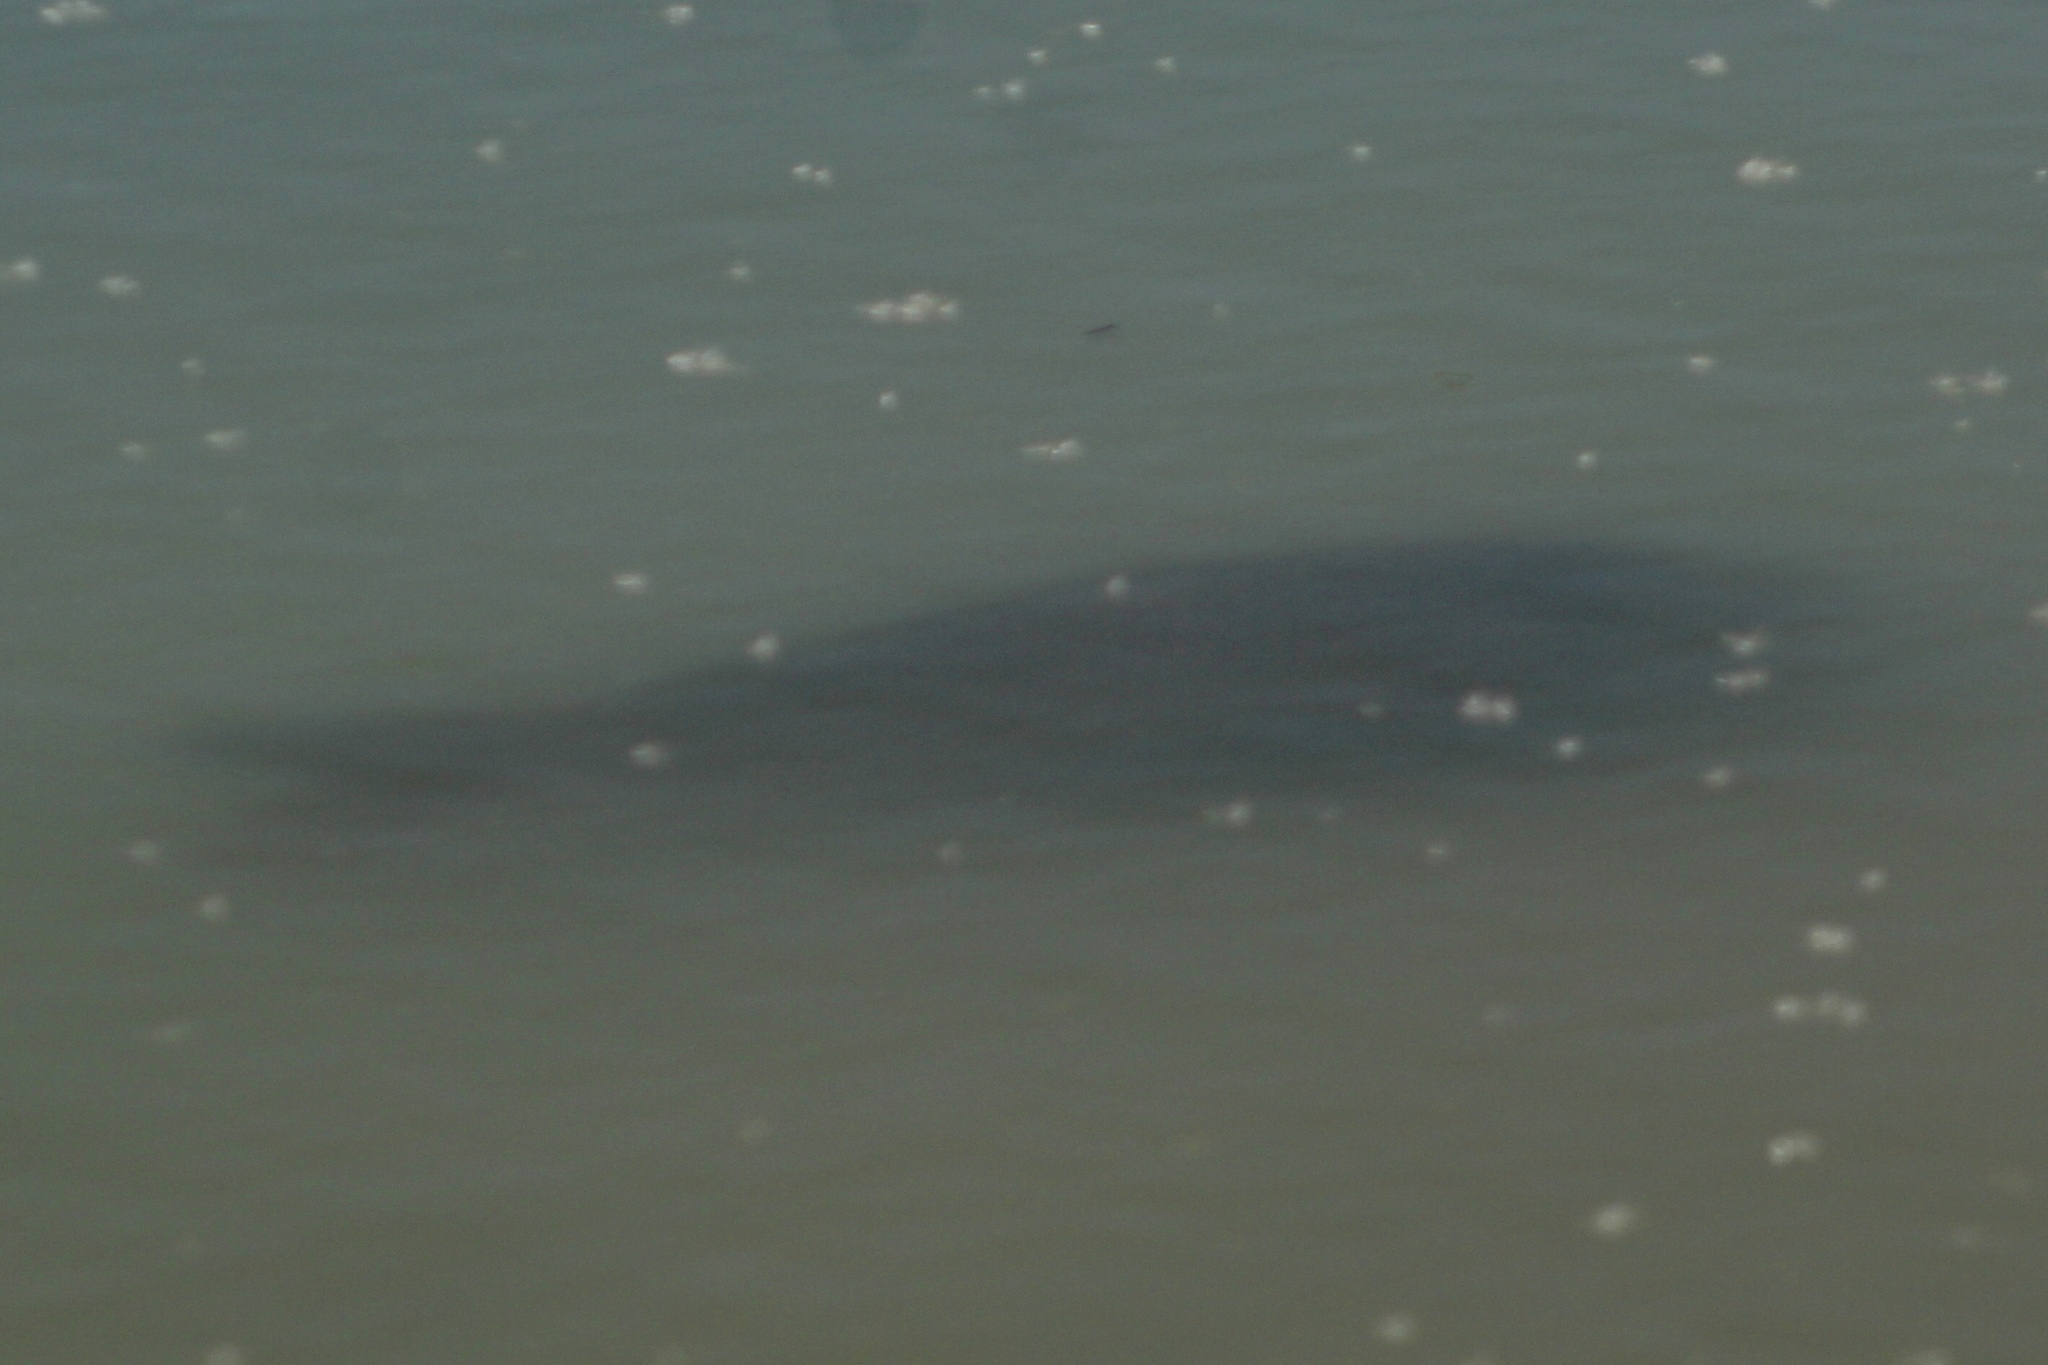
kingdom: Animalia
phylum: Chordata
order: Cypriniformes
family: Cyprinidae
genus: Cyprinus
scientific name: Cyprinus carpio
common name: Common carp
